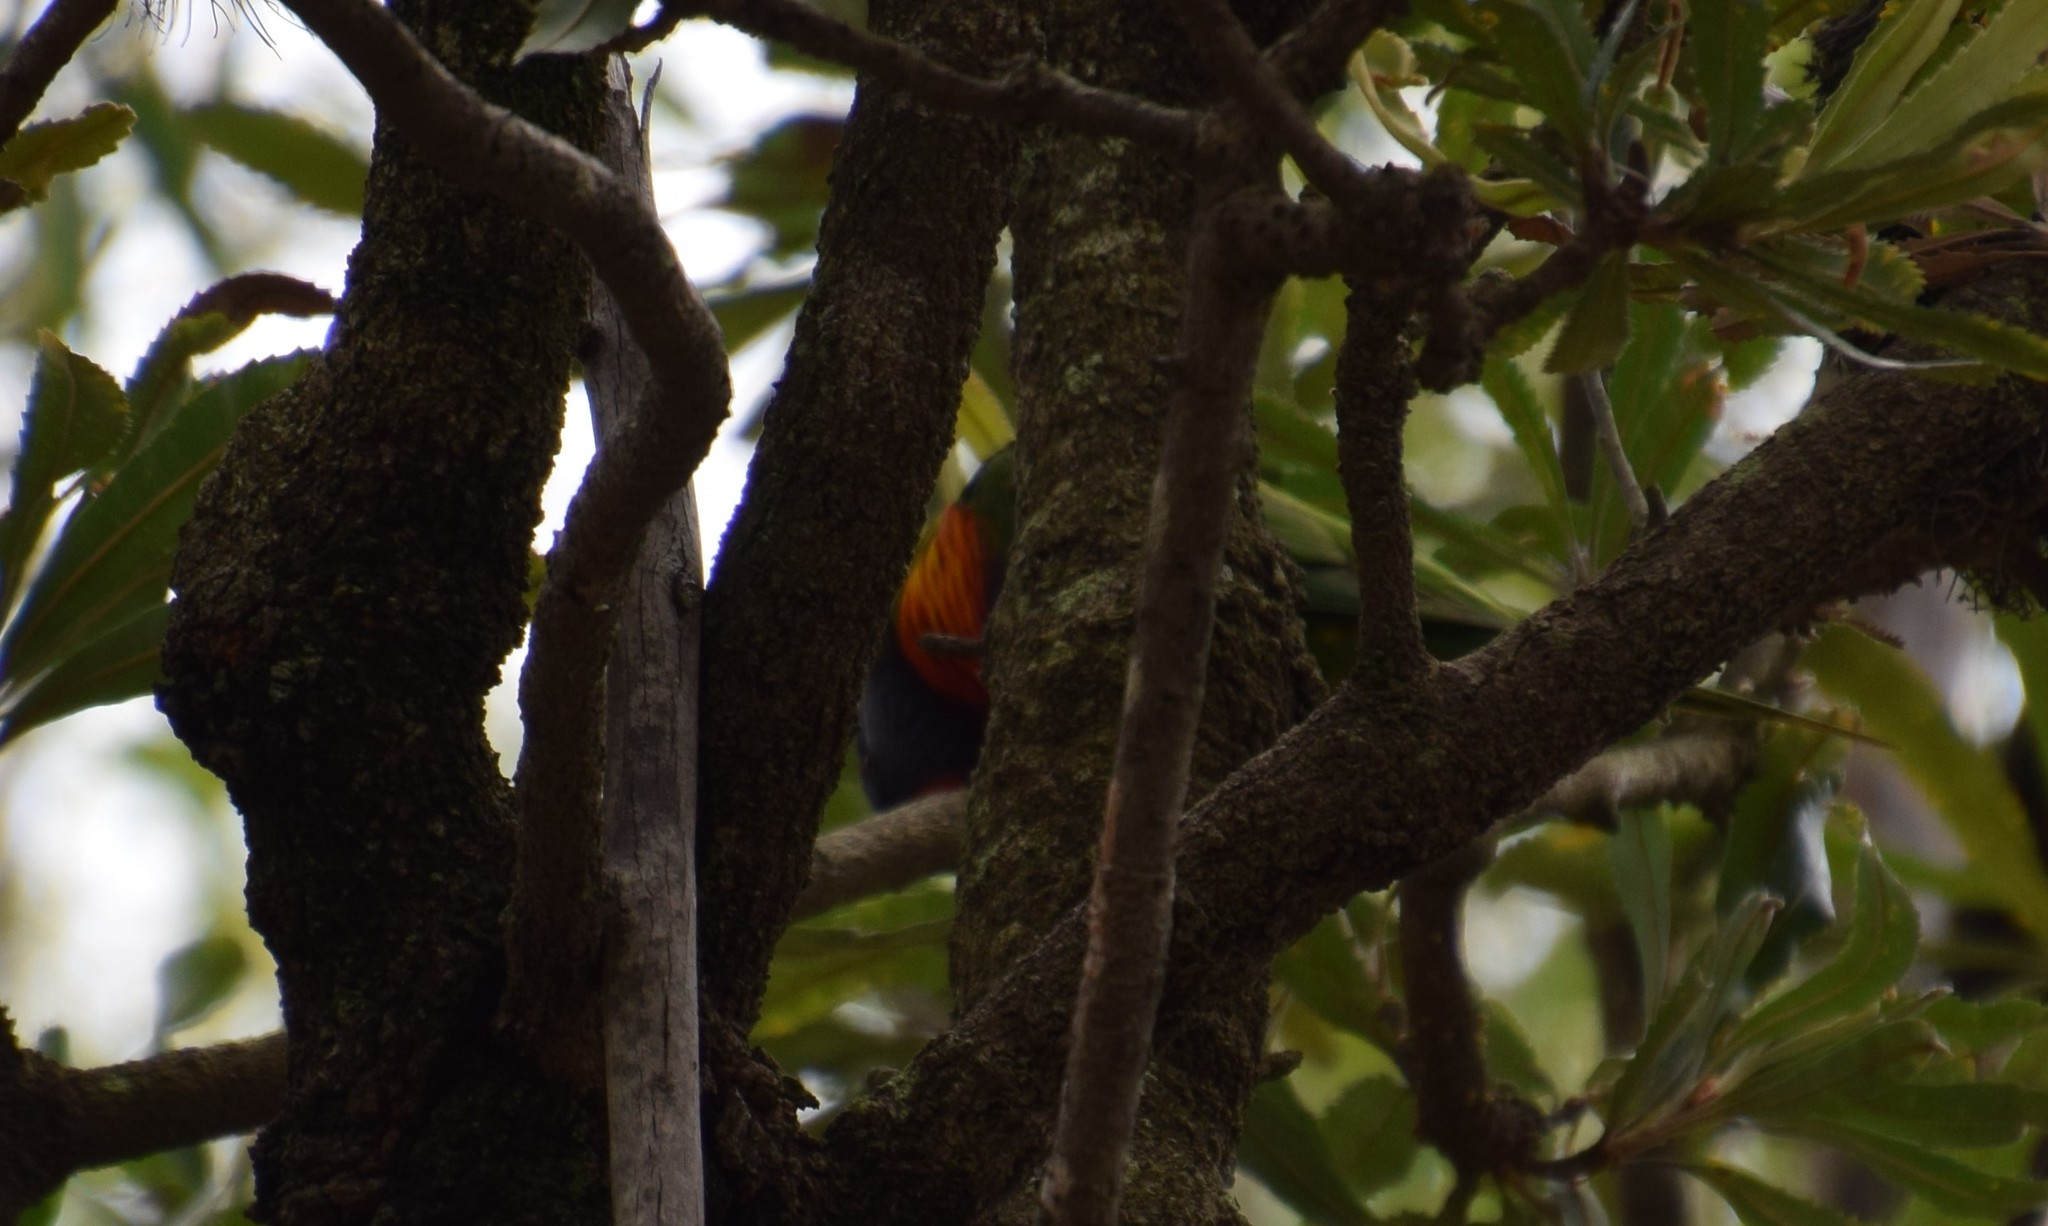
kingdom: Animalia
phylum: Chordata
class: Aves
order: Psittaciformes
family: Psittacidae
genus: Trichoglossus
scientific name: Trichoglossus haematodus
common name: Coconut lorikeet
